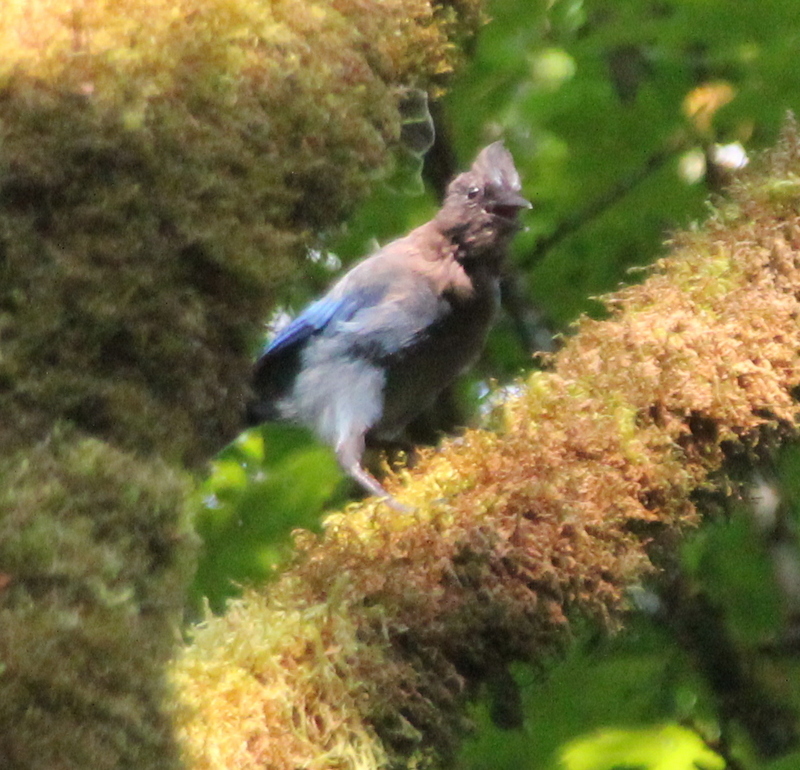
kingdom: Animalia
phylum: Chordata
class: Aves
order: Passeriformes
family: Corvidae
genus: Cyanocitta
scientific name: Cyanocitta stelleri
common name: Steller's jay
